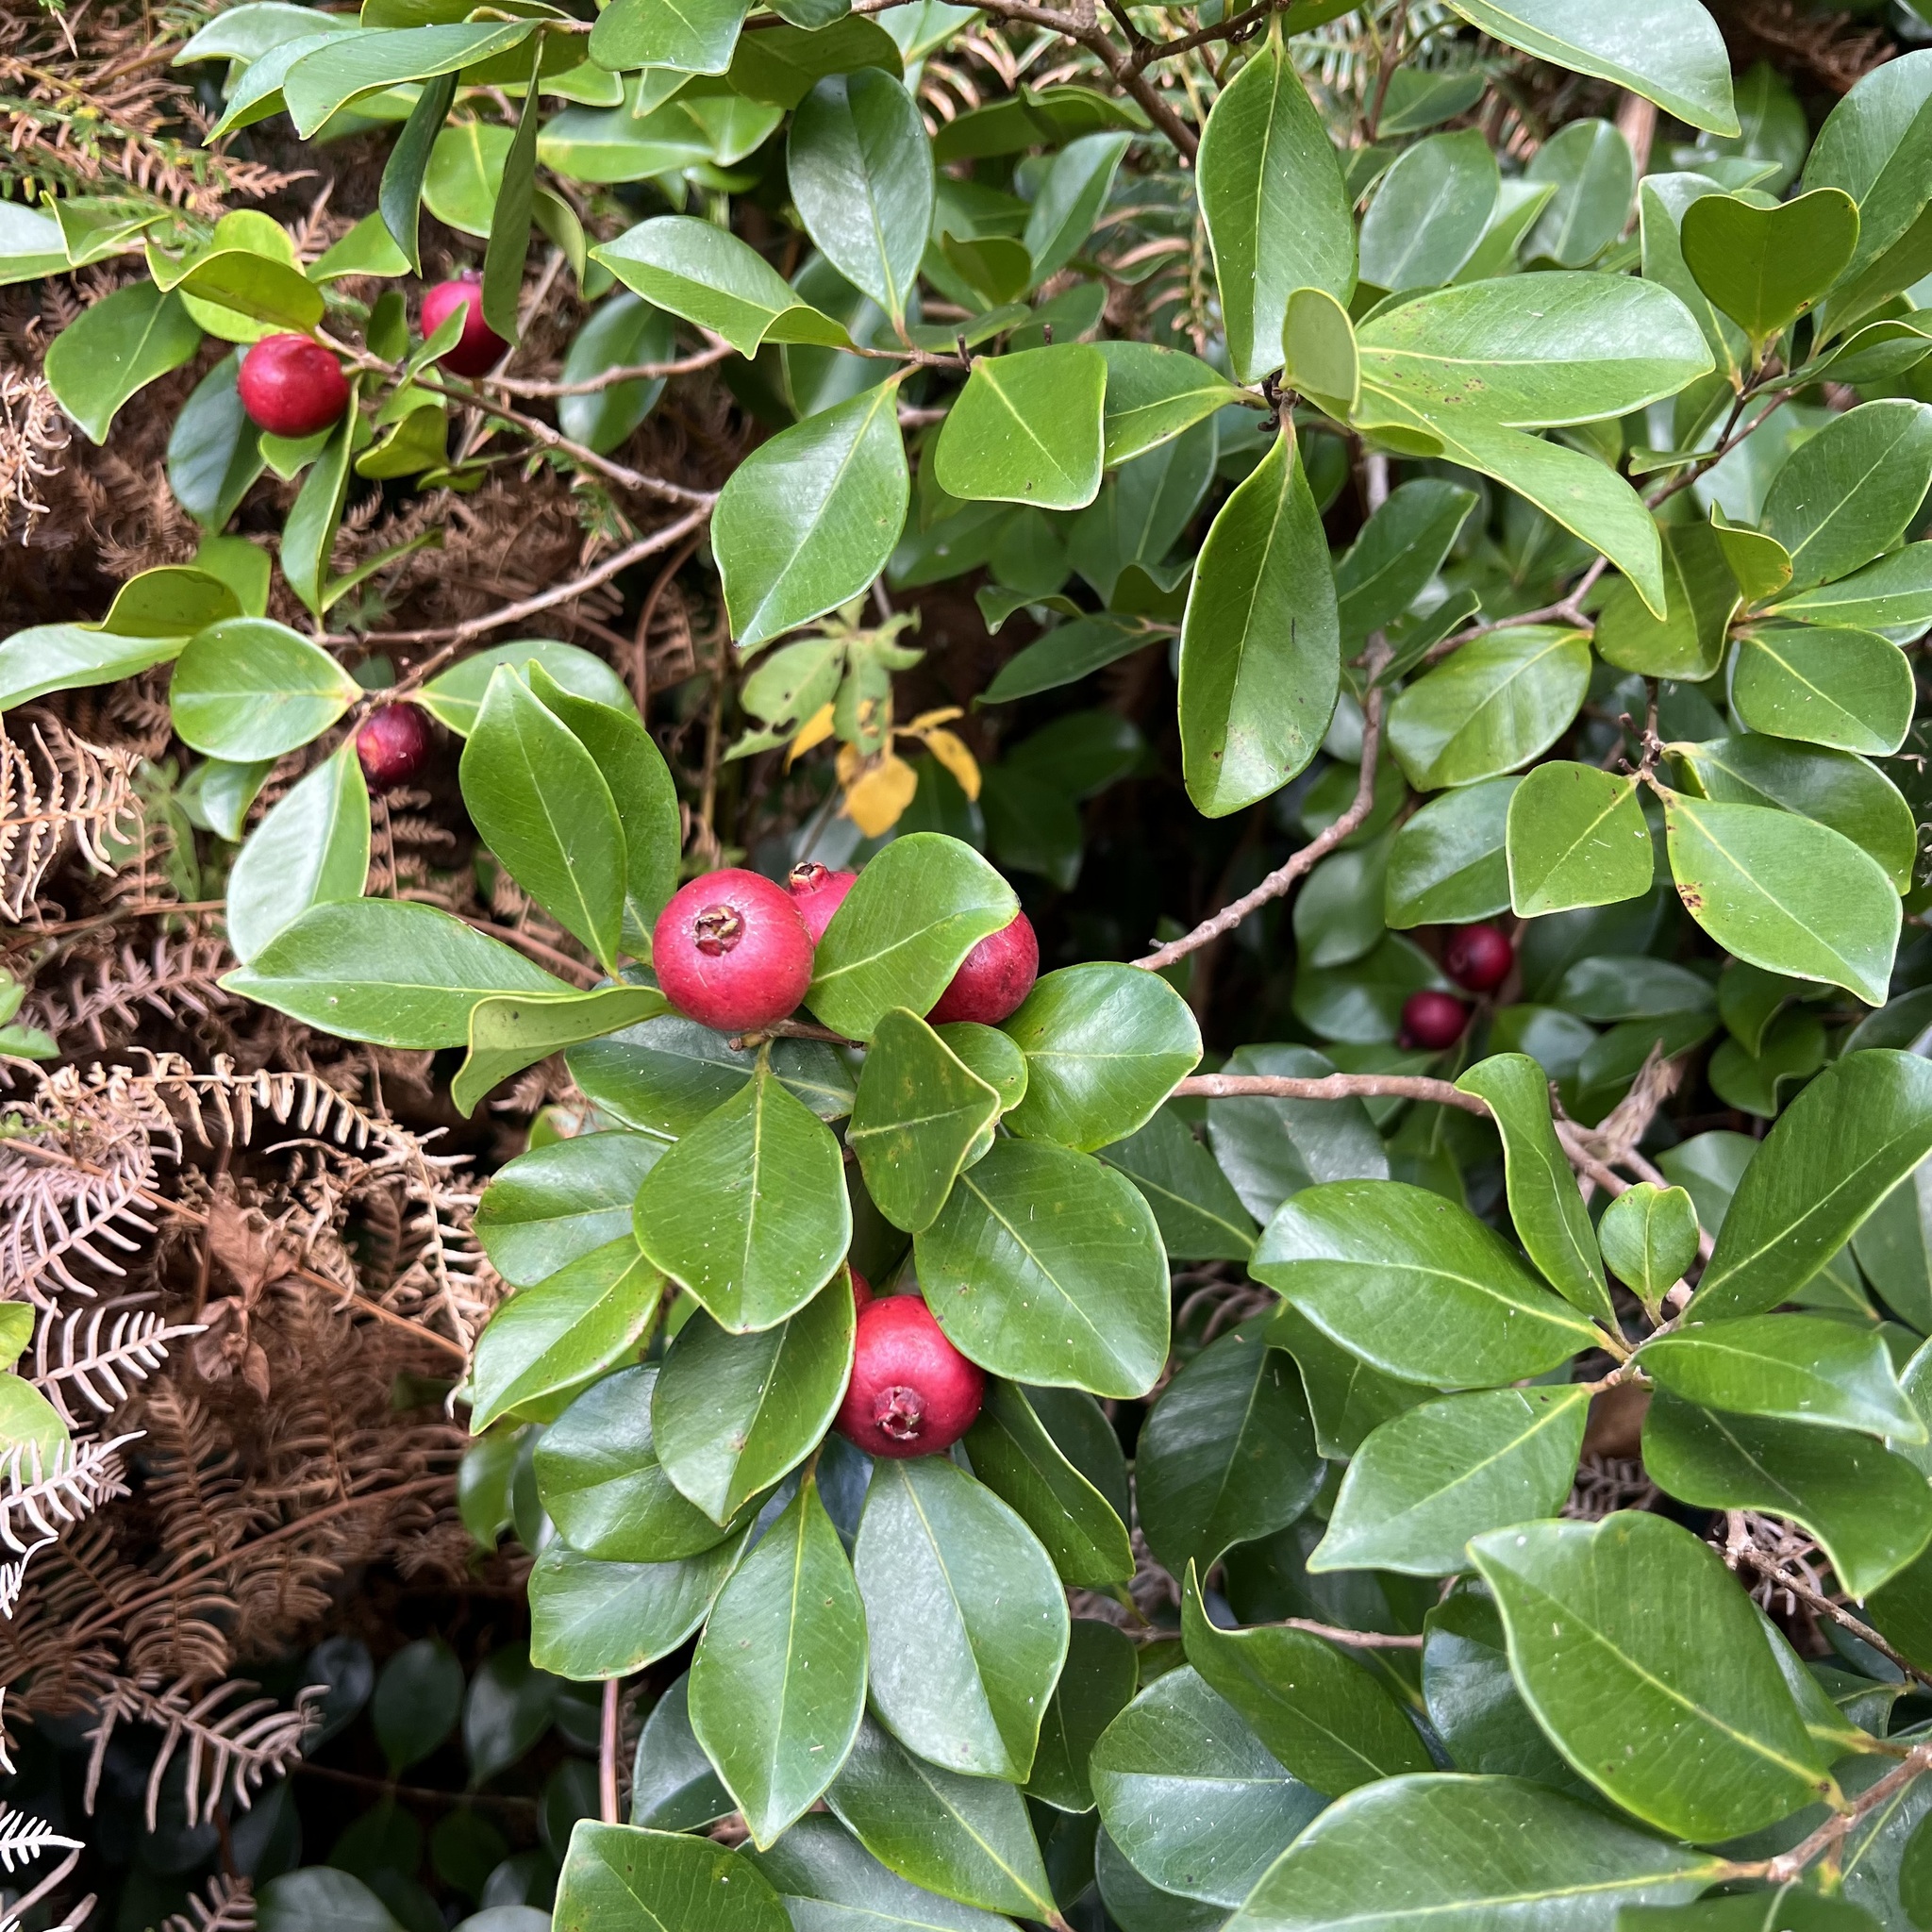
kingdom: Plantae
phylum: Tracheophyta
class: Magnoliopsida
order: Myrtales
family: Myrtaceae
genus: Psidium
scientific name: Psidium cattleianum
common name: Strawberry guava
